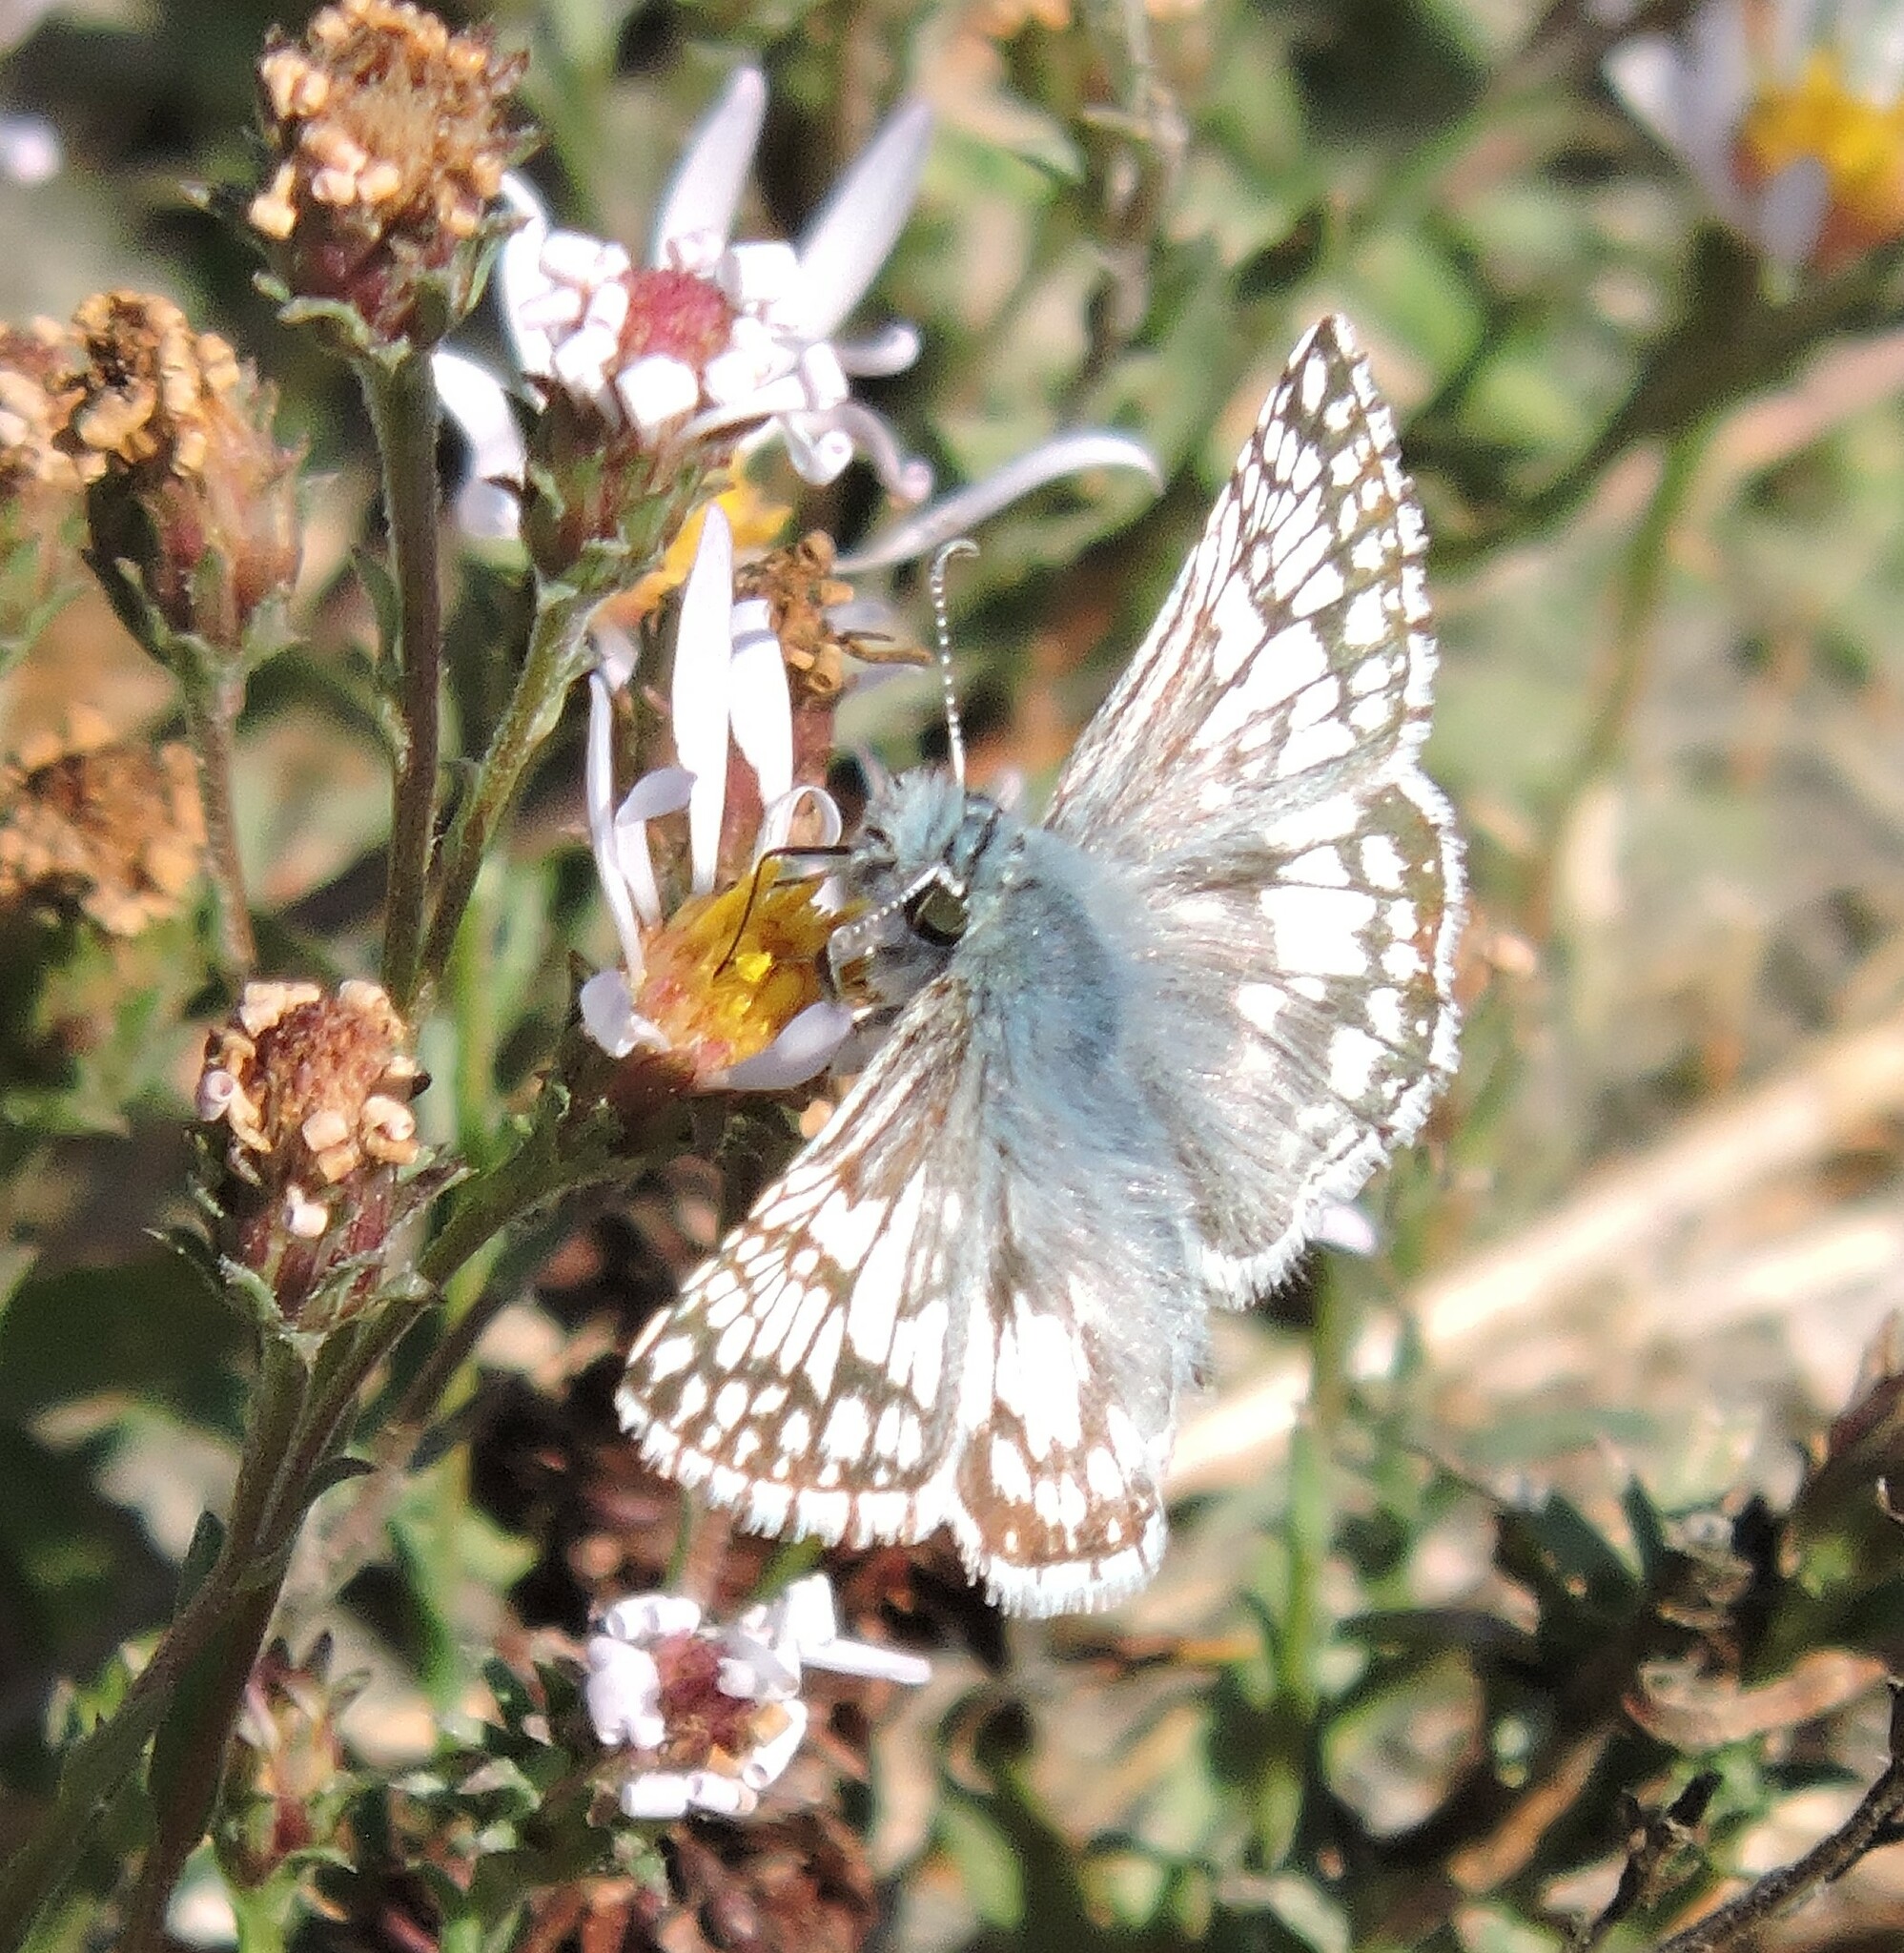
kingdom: Animalia
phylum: Arthropoda
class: Insecta
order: Lepidoptera
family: Hesperiidae
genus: Burnsius
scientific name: Burnsius communis
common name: Common checkered-skipper
